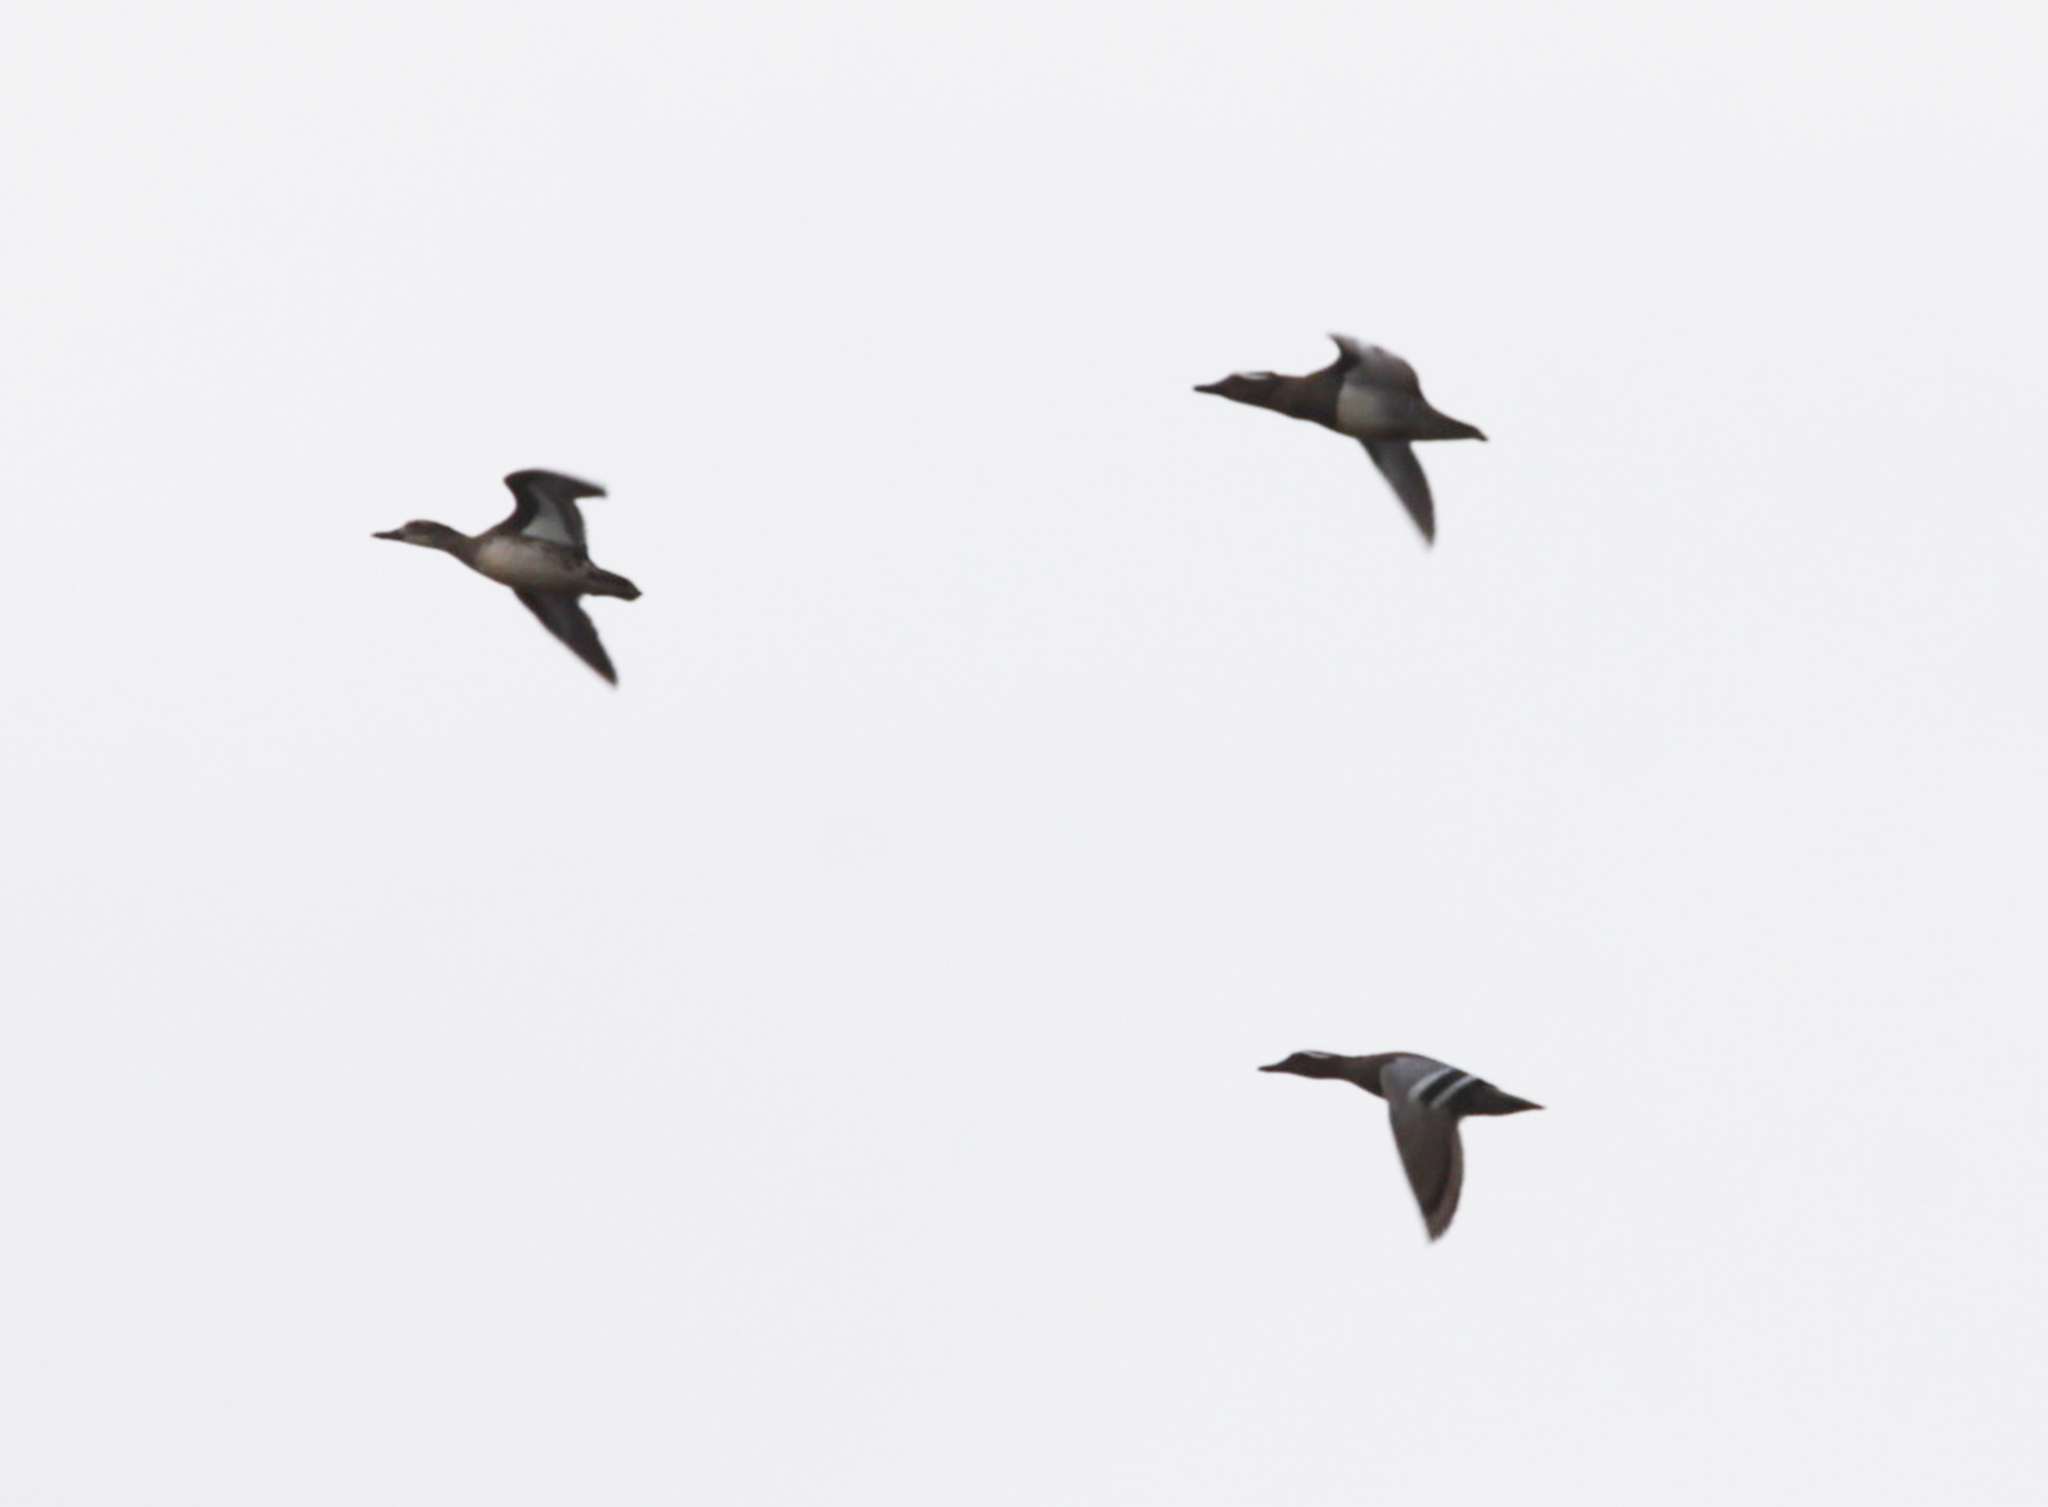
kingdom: Animalia
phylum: Chordata
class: Aves
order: Anseriformes
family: Anatidae
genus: Spatula
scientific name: Spatula querquedula
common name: Garganey
